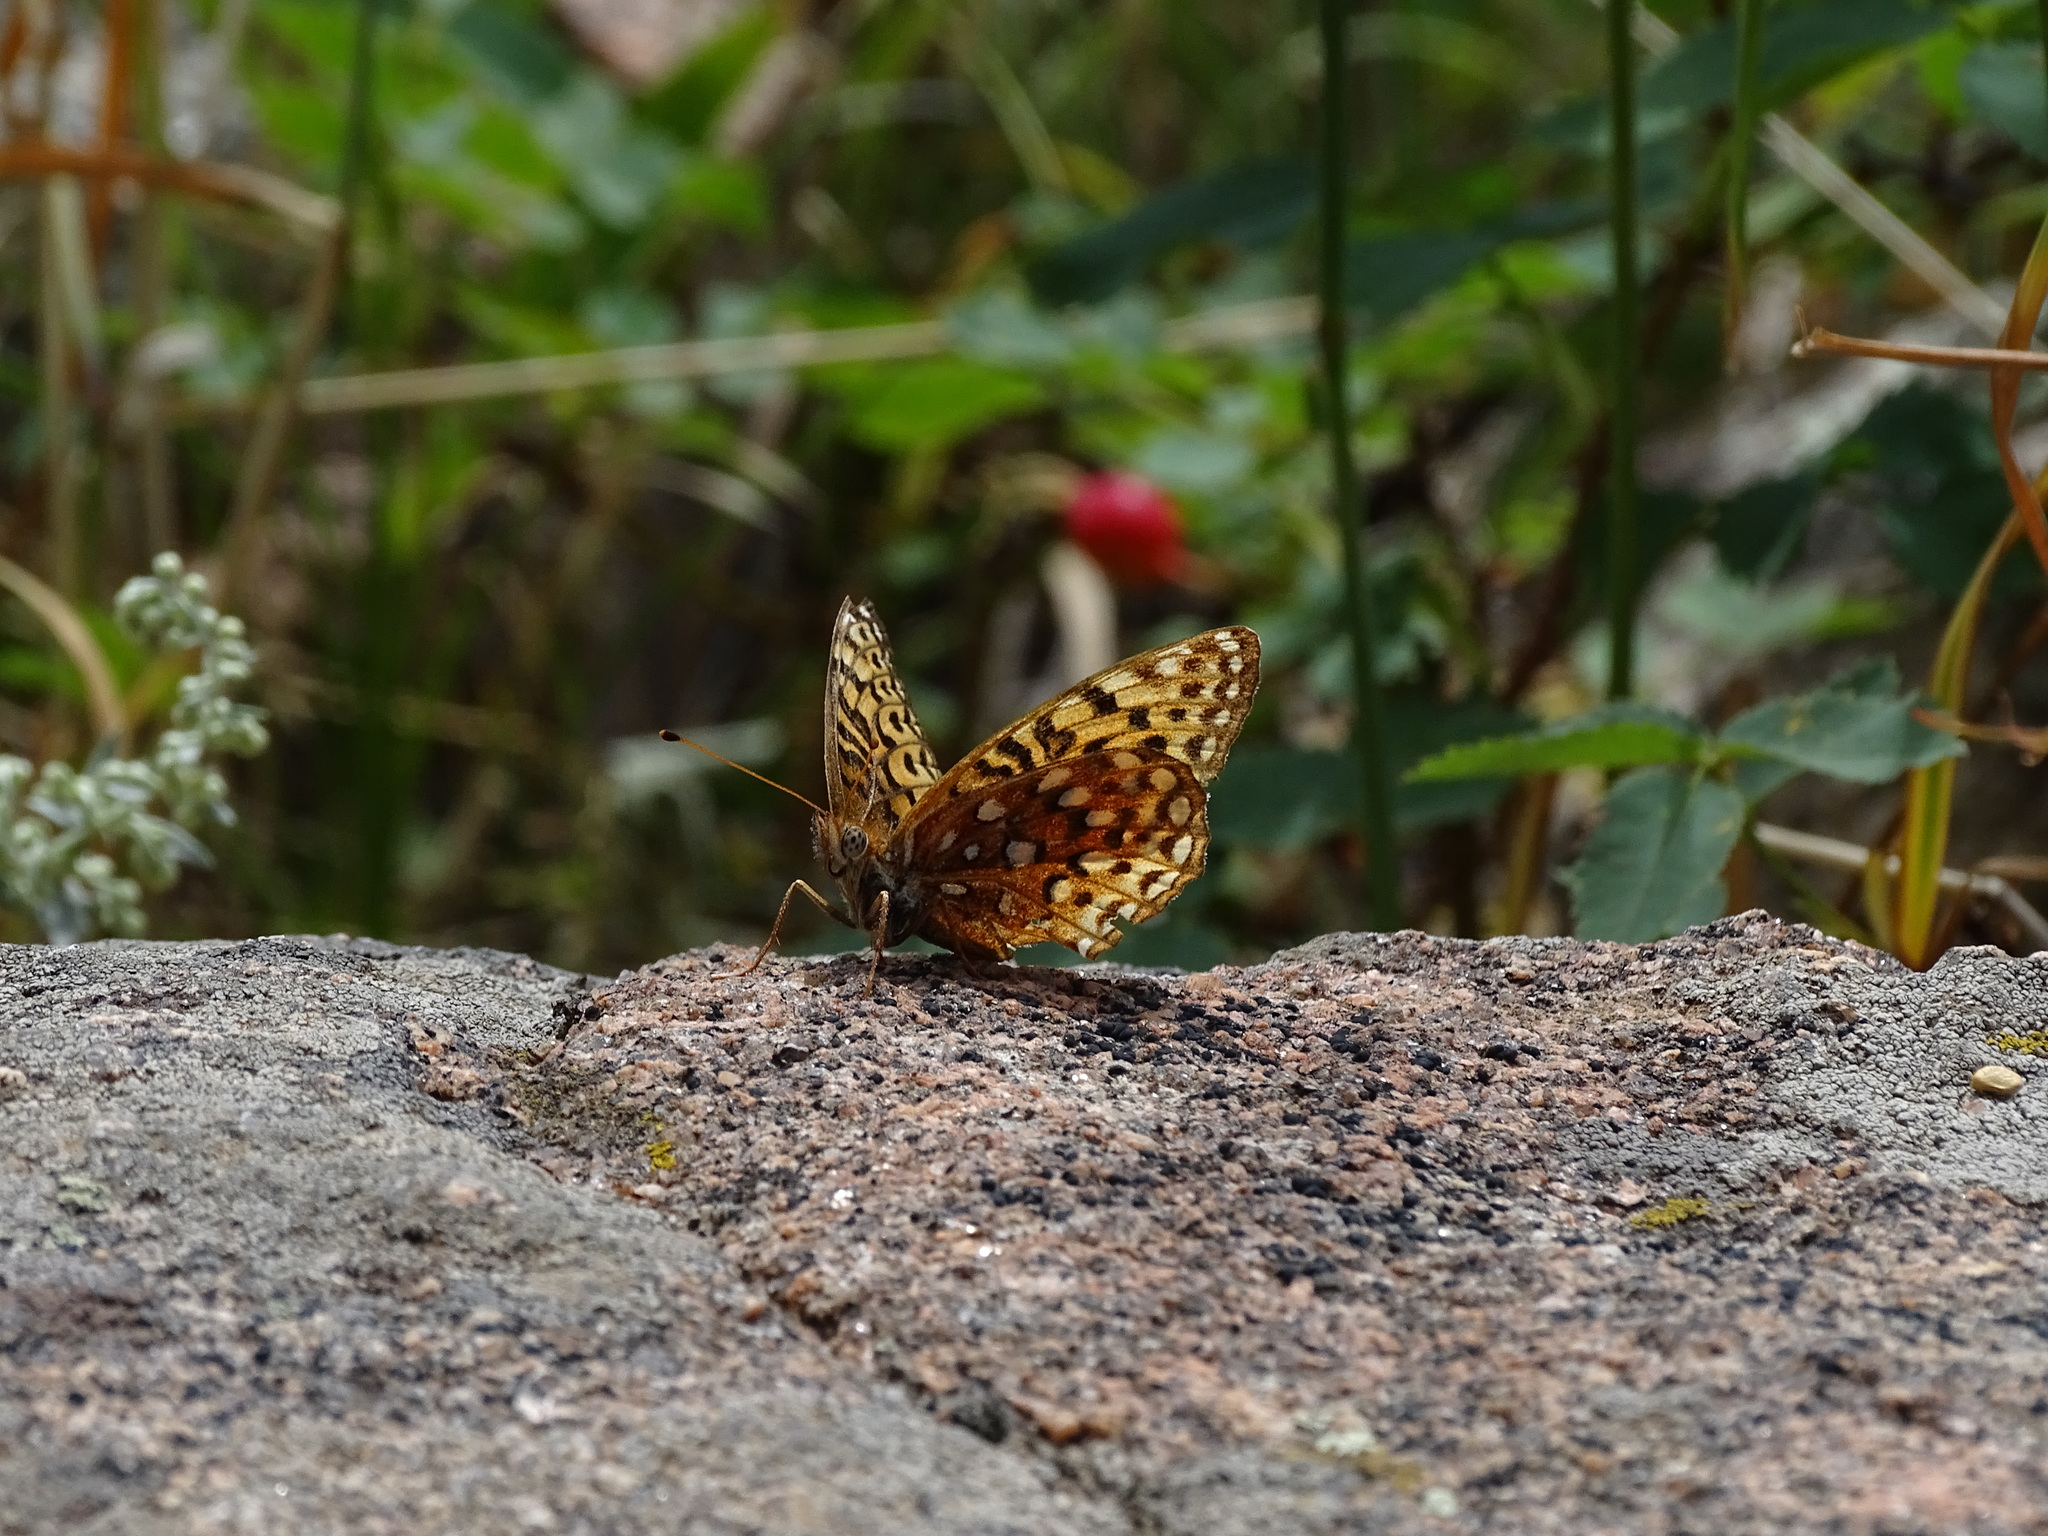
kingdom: Animalia
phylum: Arthropoda
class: Insecta
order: Lepidoptera
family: Nymphalidae
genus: Speyeria
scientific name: Speyeria mormonia
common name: Mormon fritillary
